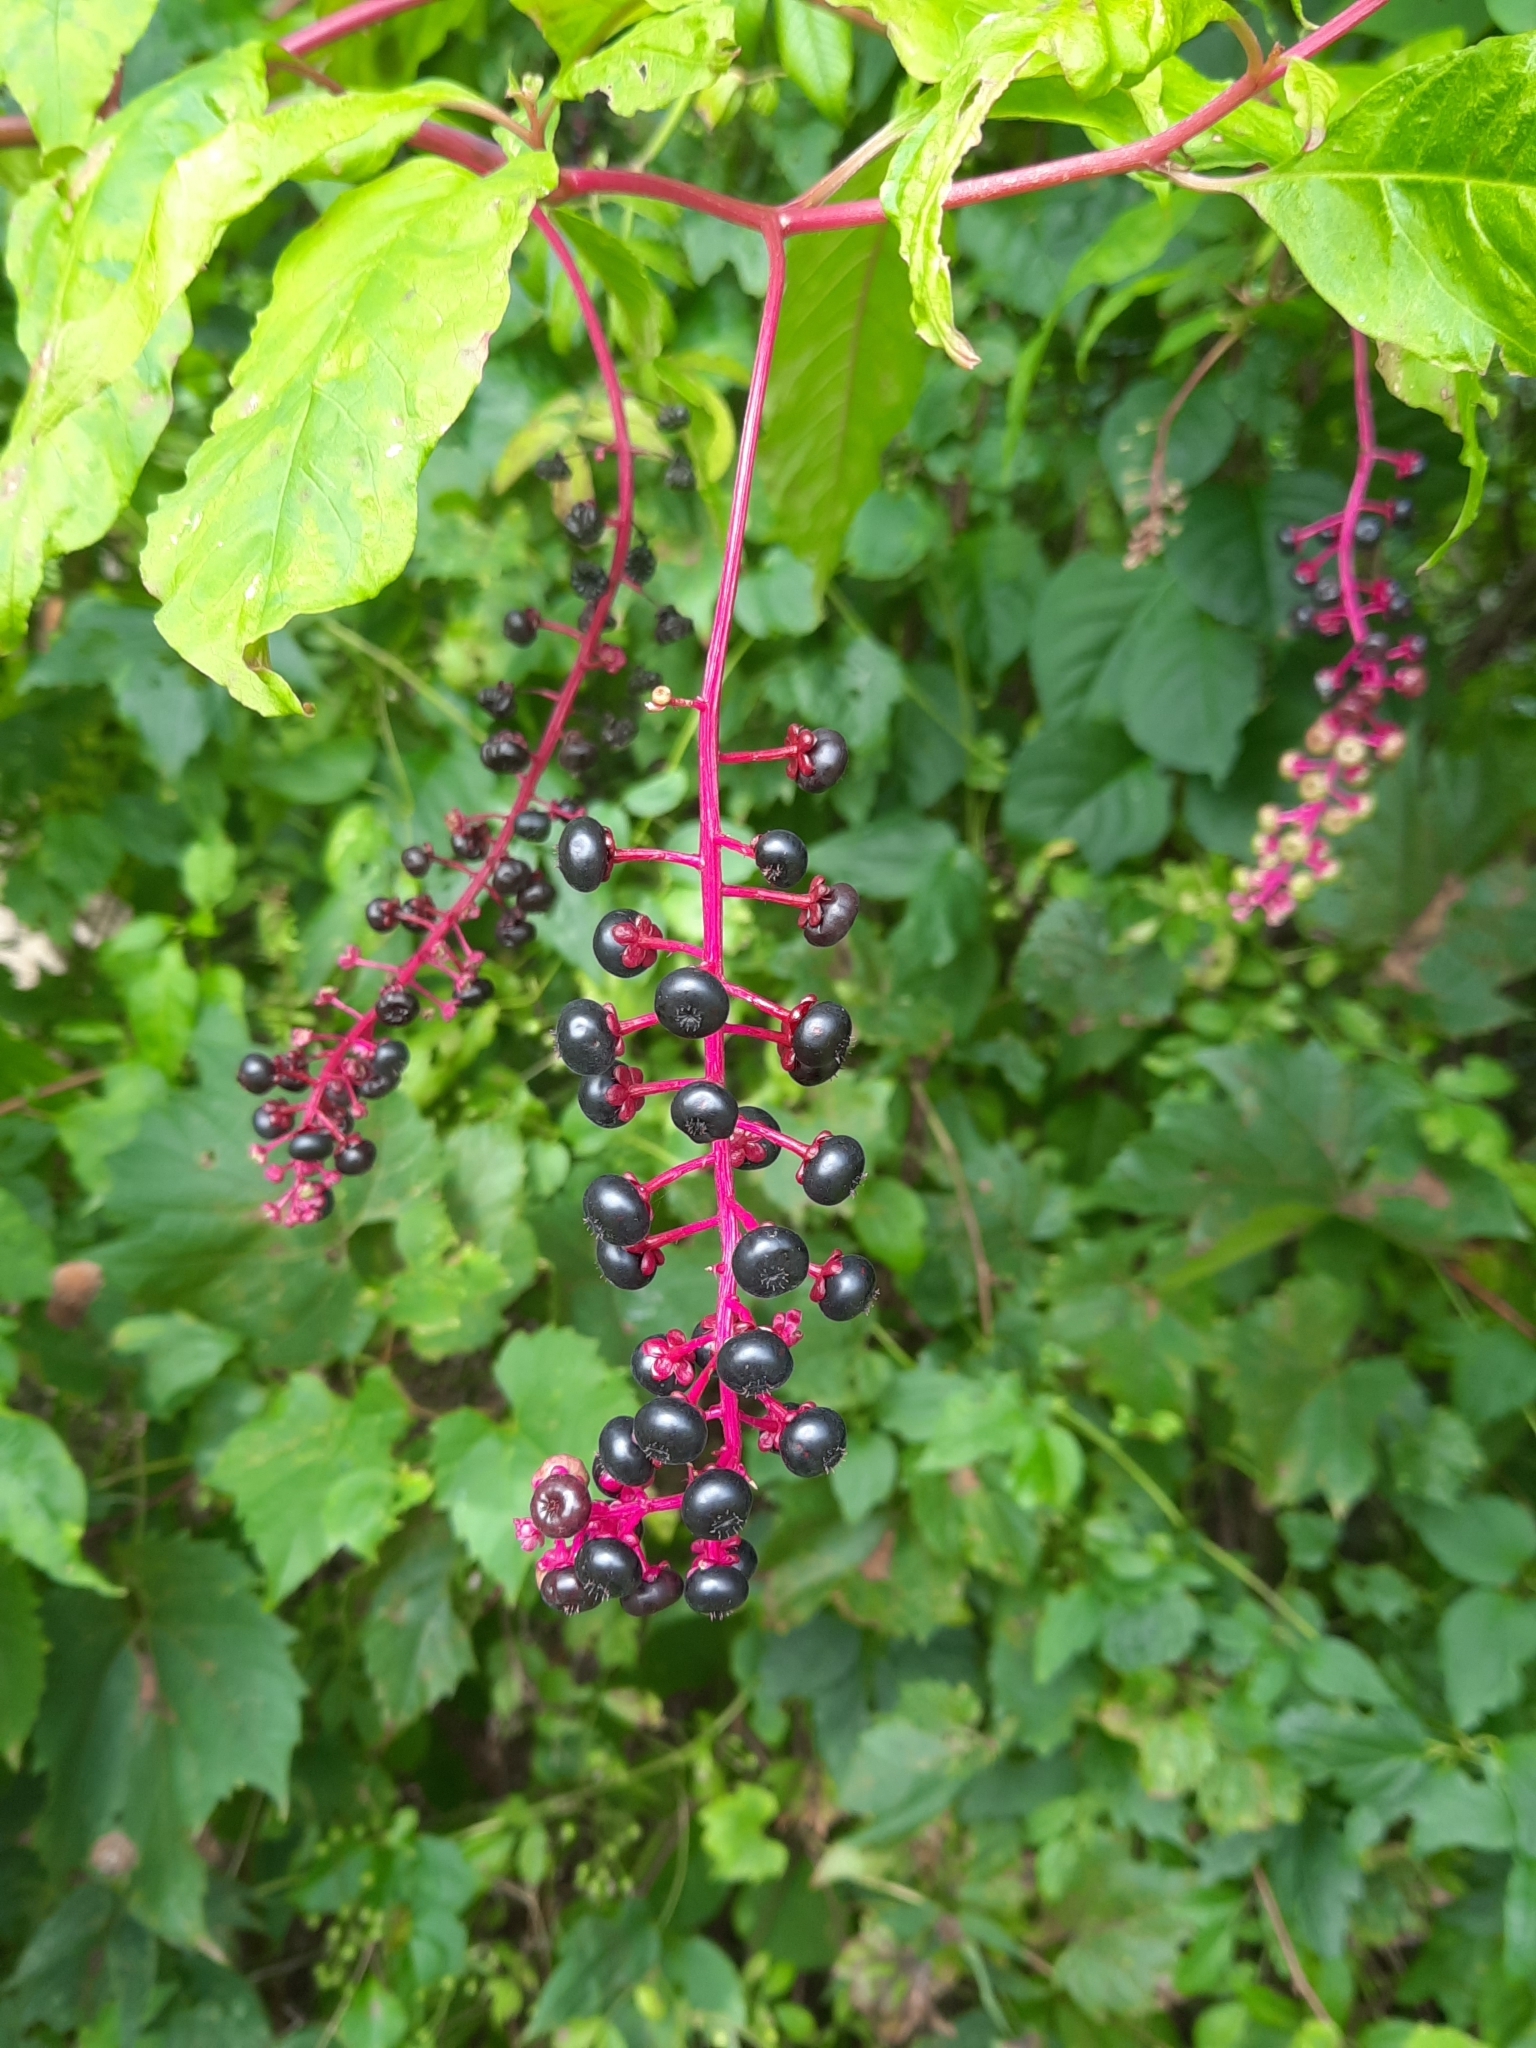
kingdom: Plantae
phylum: Tracheophyta
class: Magnoliopsida
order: Caryophyllales
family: Phytolaccaceae
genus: Phytolacca
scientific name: Phytolacca americana
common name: American pokeweed
